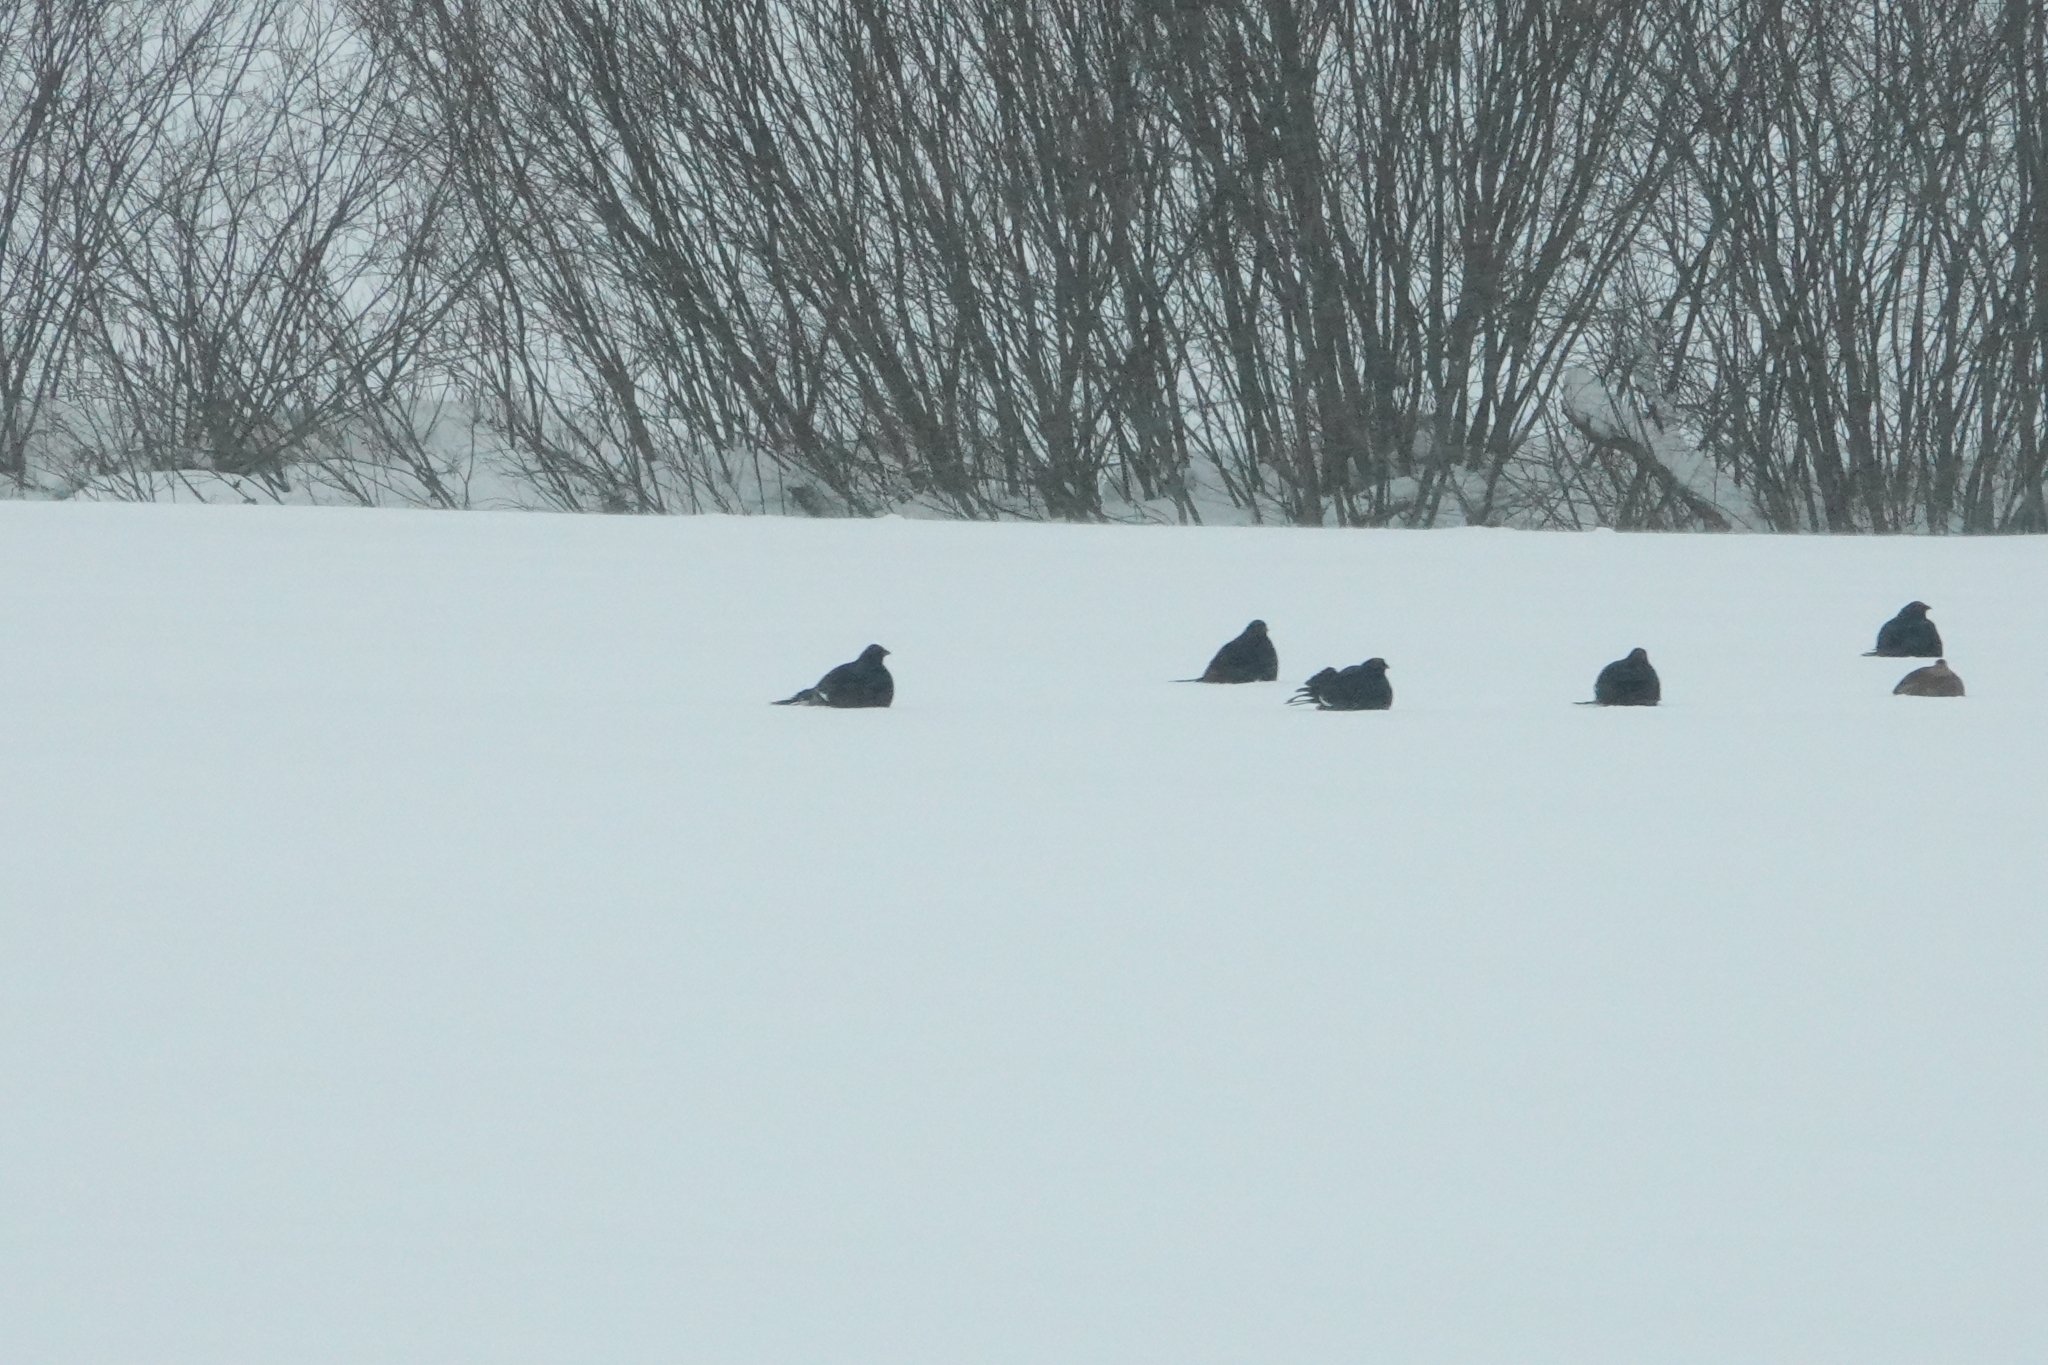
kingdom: Animalia
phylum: Chordata
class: Aves
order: Galliformes
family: Phasianidae
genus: Lyrurus
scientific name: Lyrurus tetrix
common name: Black grouse
